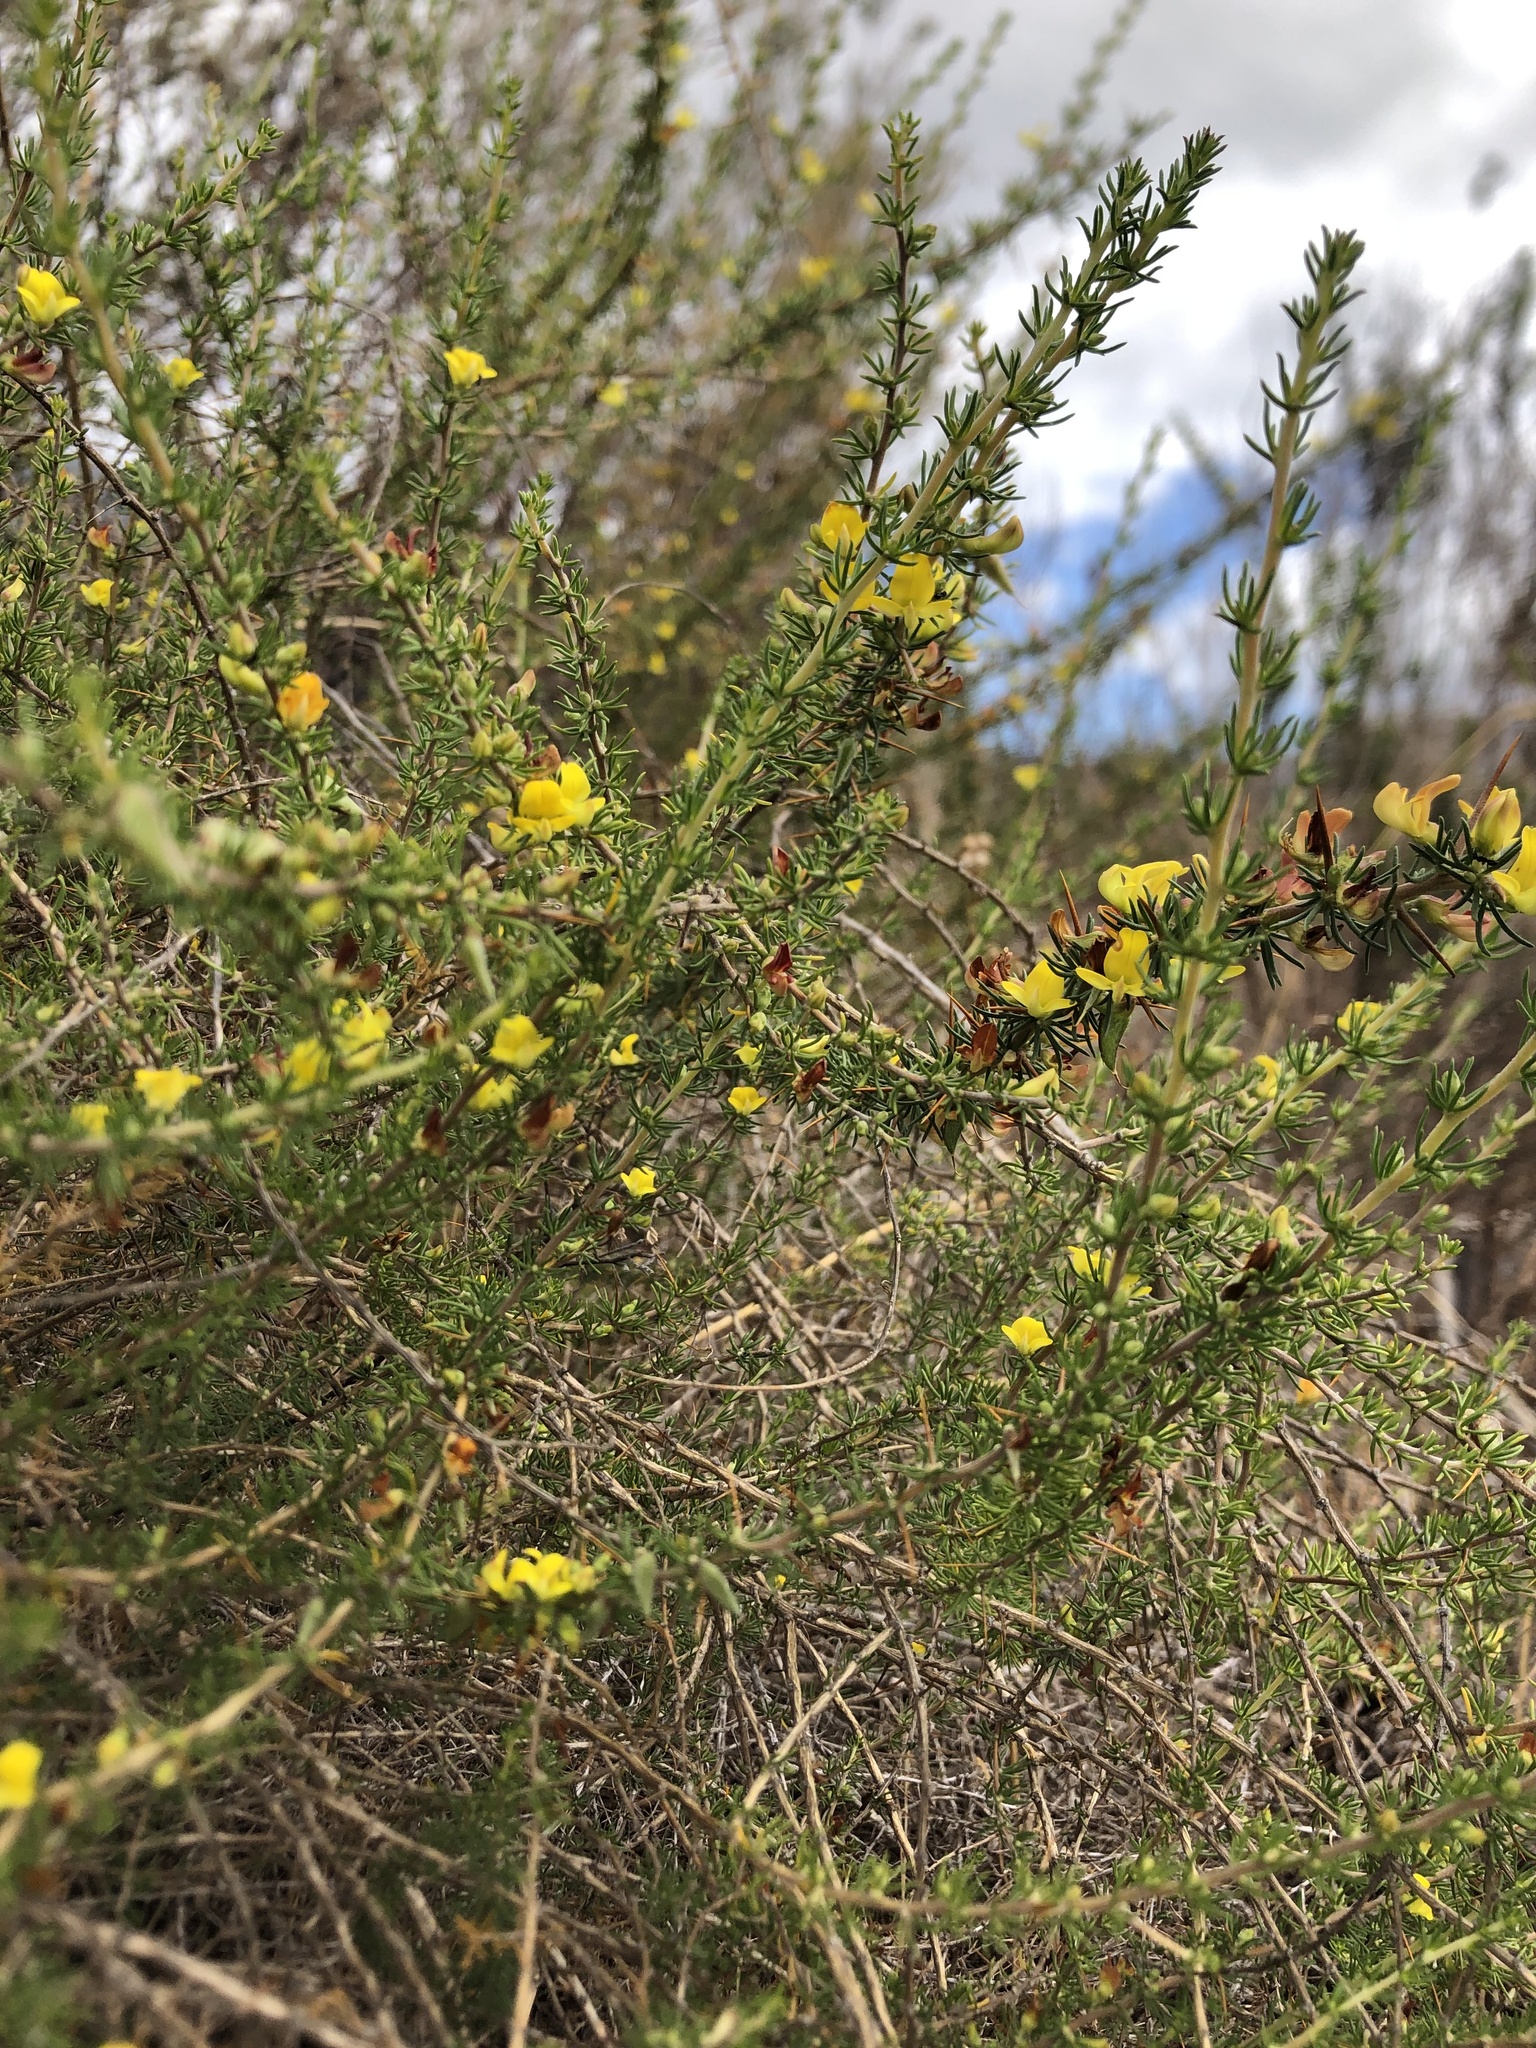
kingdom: Plantae
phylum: Tracheophyta
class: Magnoliopsida
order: Fabales
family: Fabaceae
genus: Aspalathus
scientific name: Aspalathus spinosa
